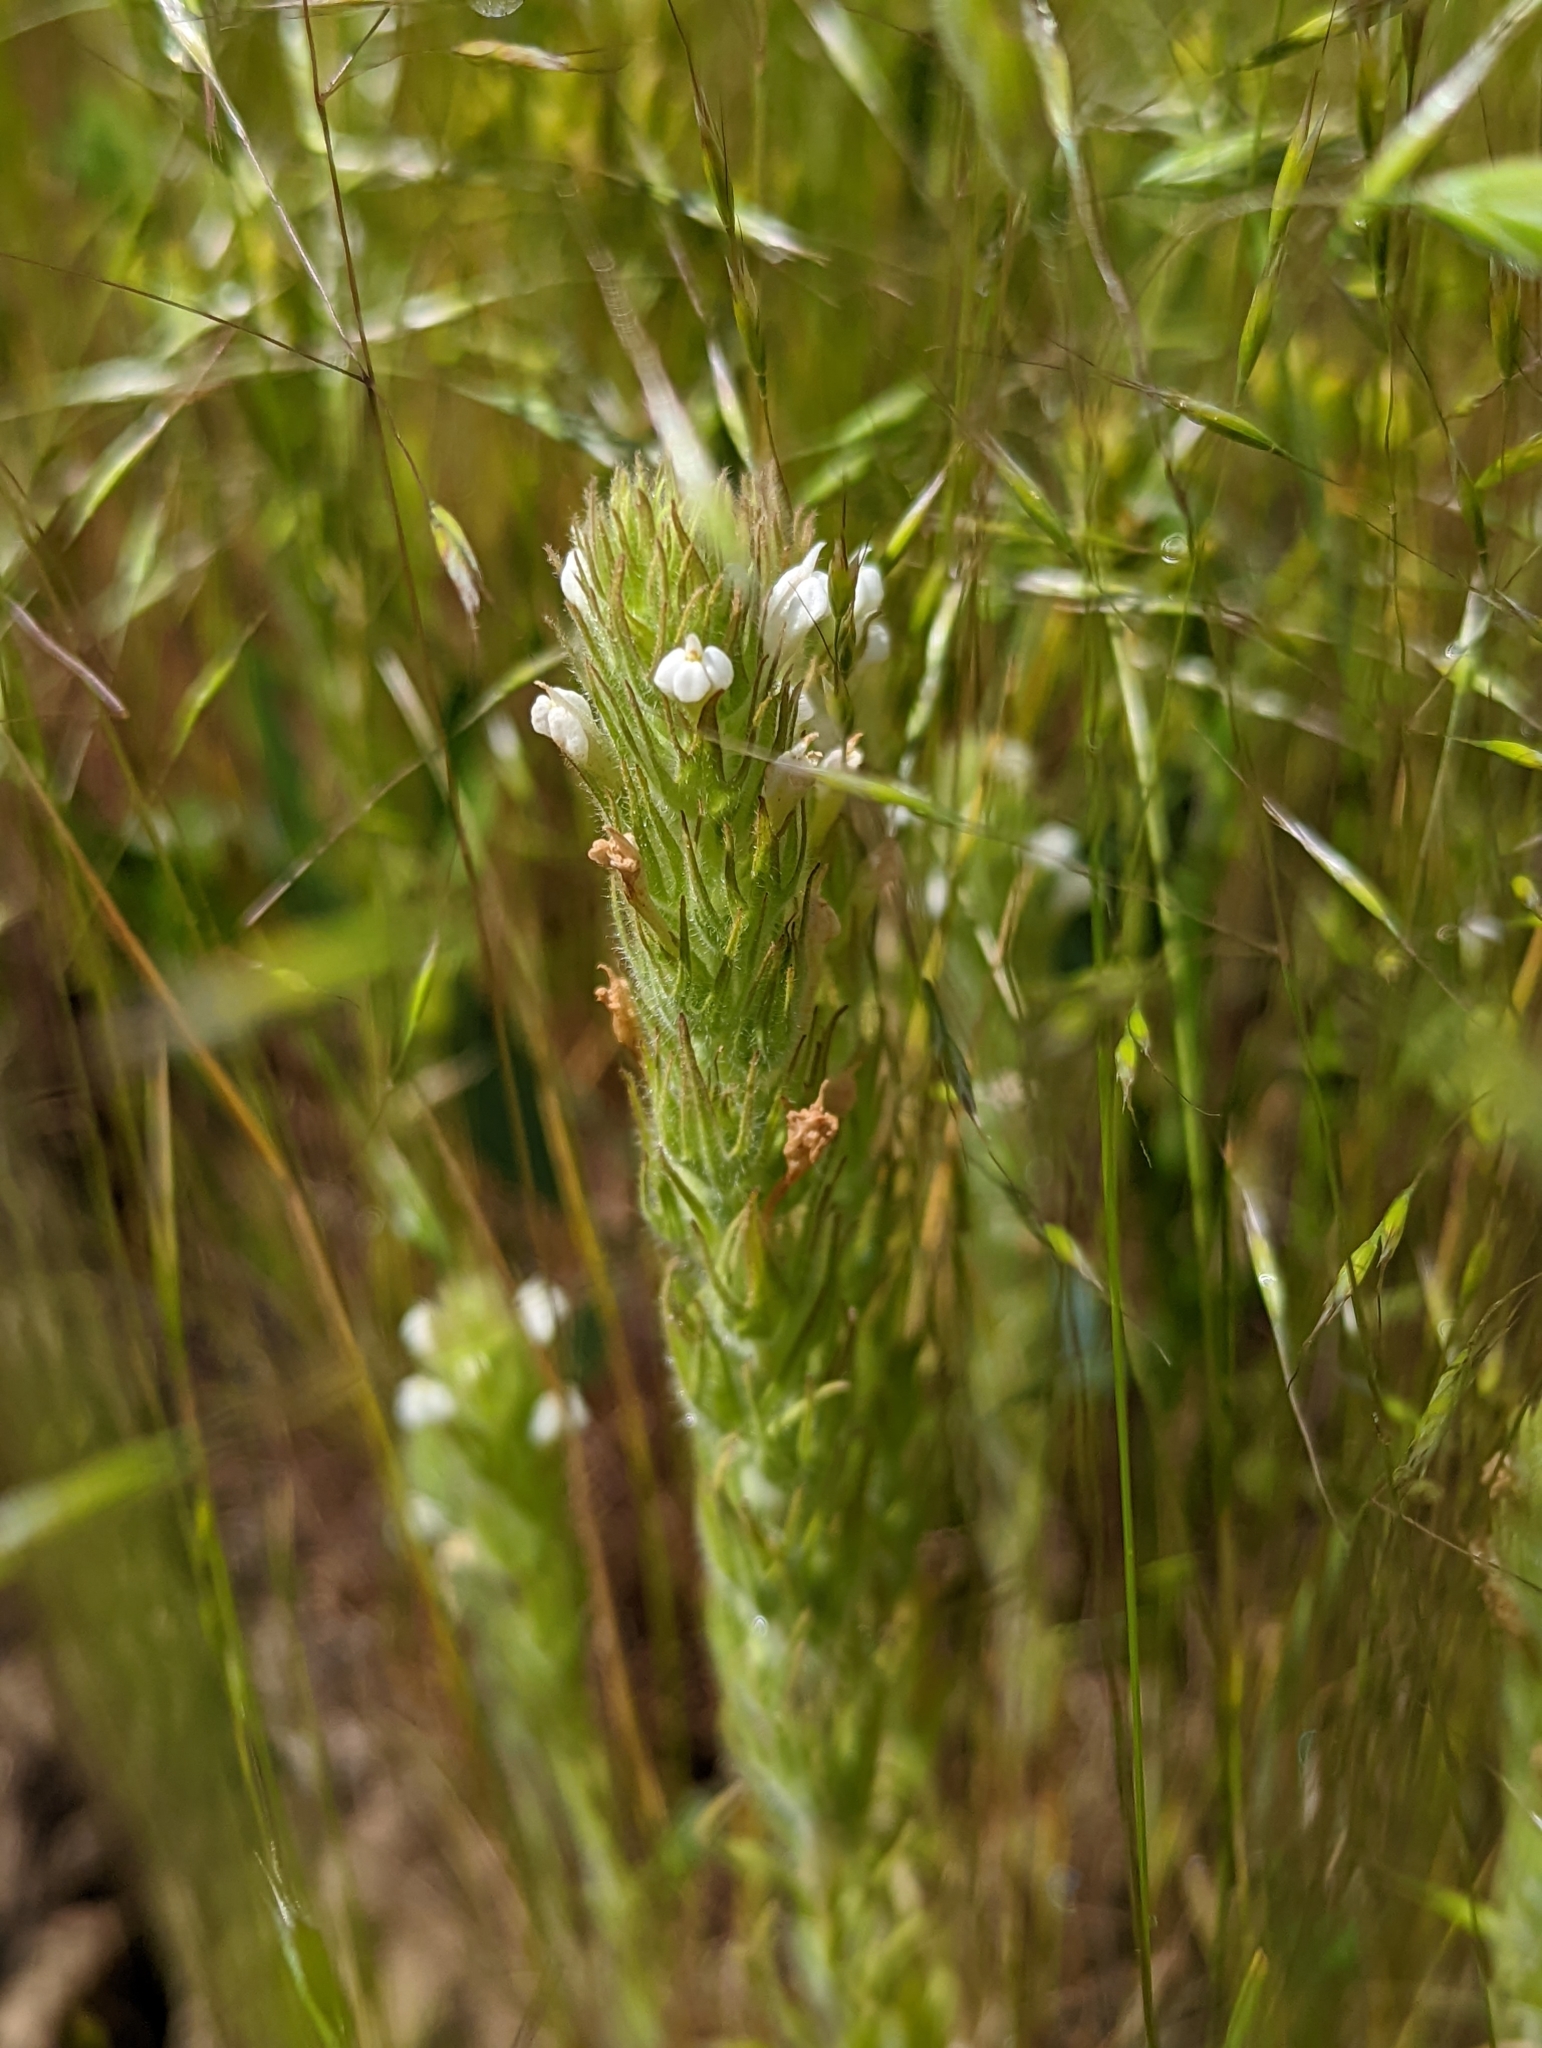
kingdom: Plantae
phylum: Tracheophyta
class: Magnoliopsida
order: Lamiales
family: Orobanchaceae
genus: Castilleja
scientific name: Castilleja tenuis
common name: Hairy indian paintbrush
